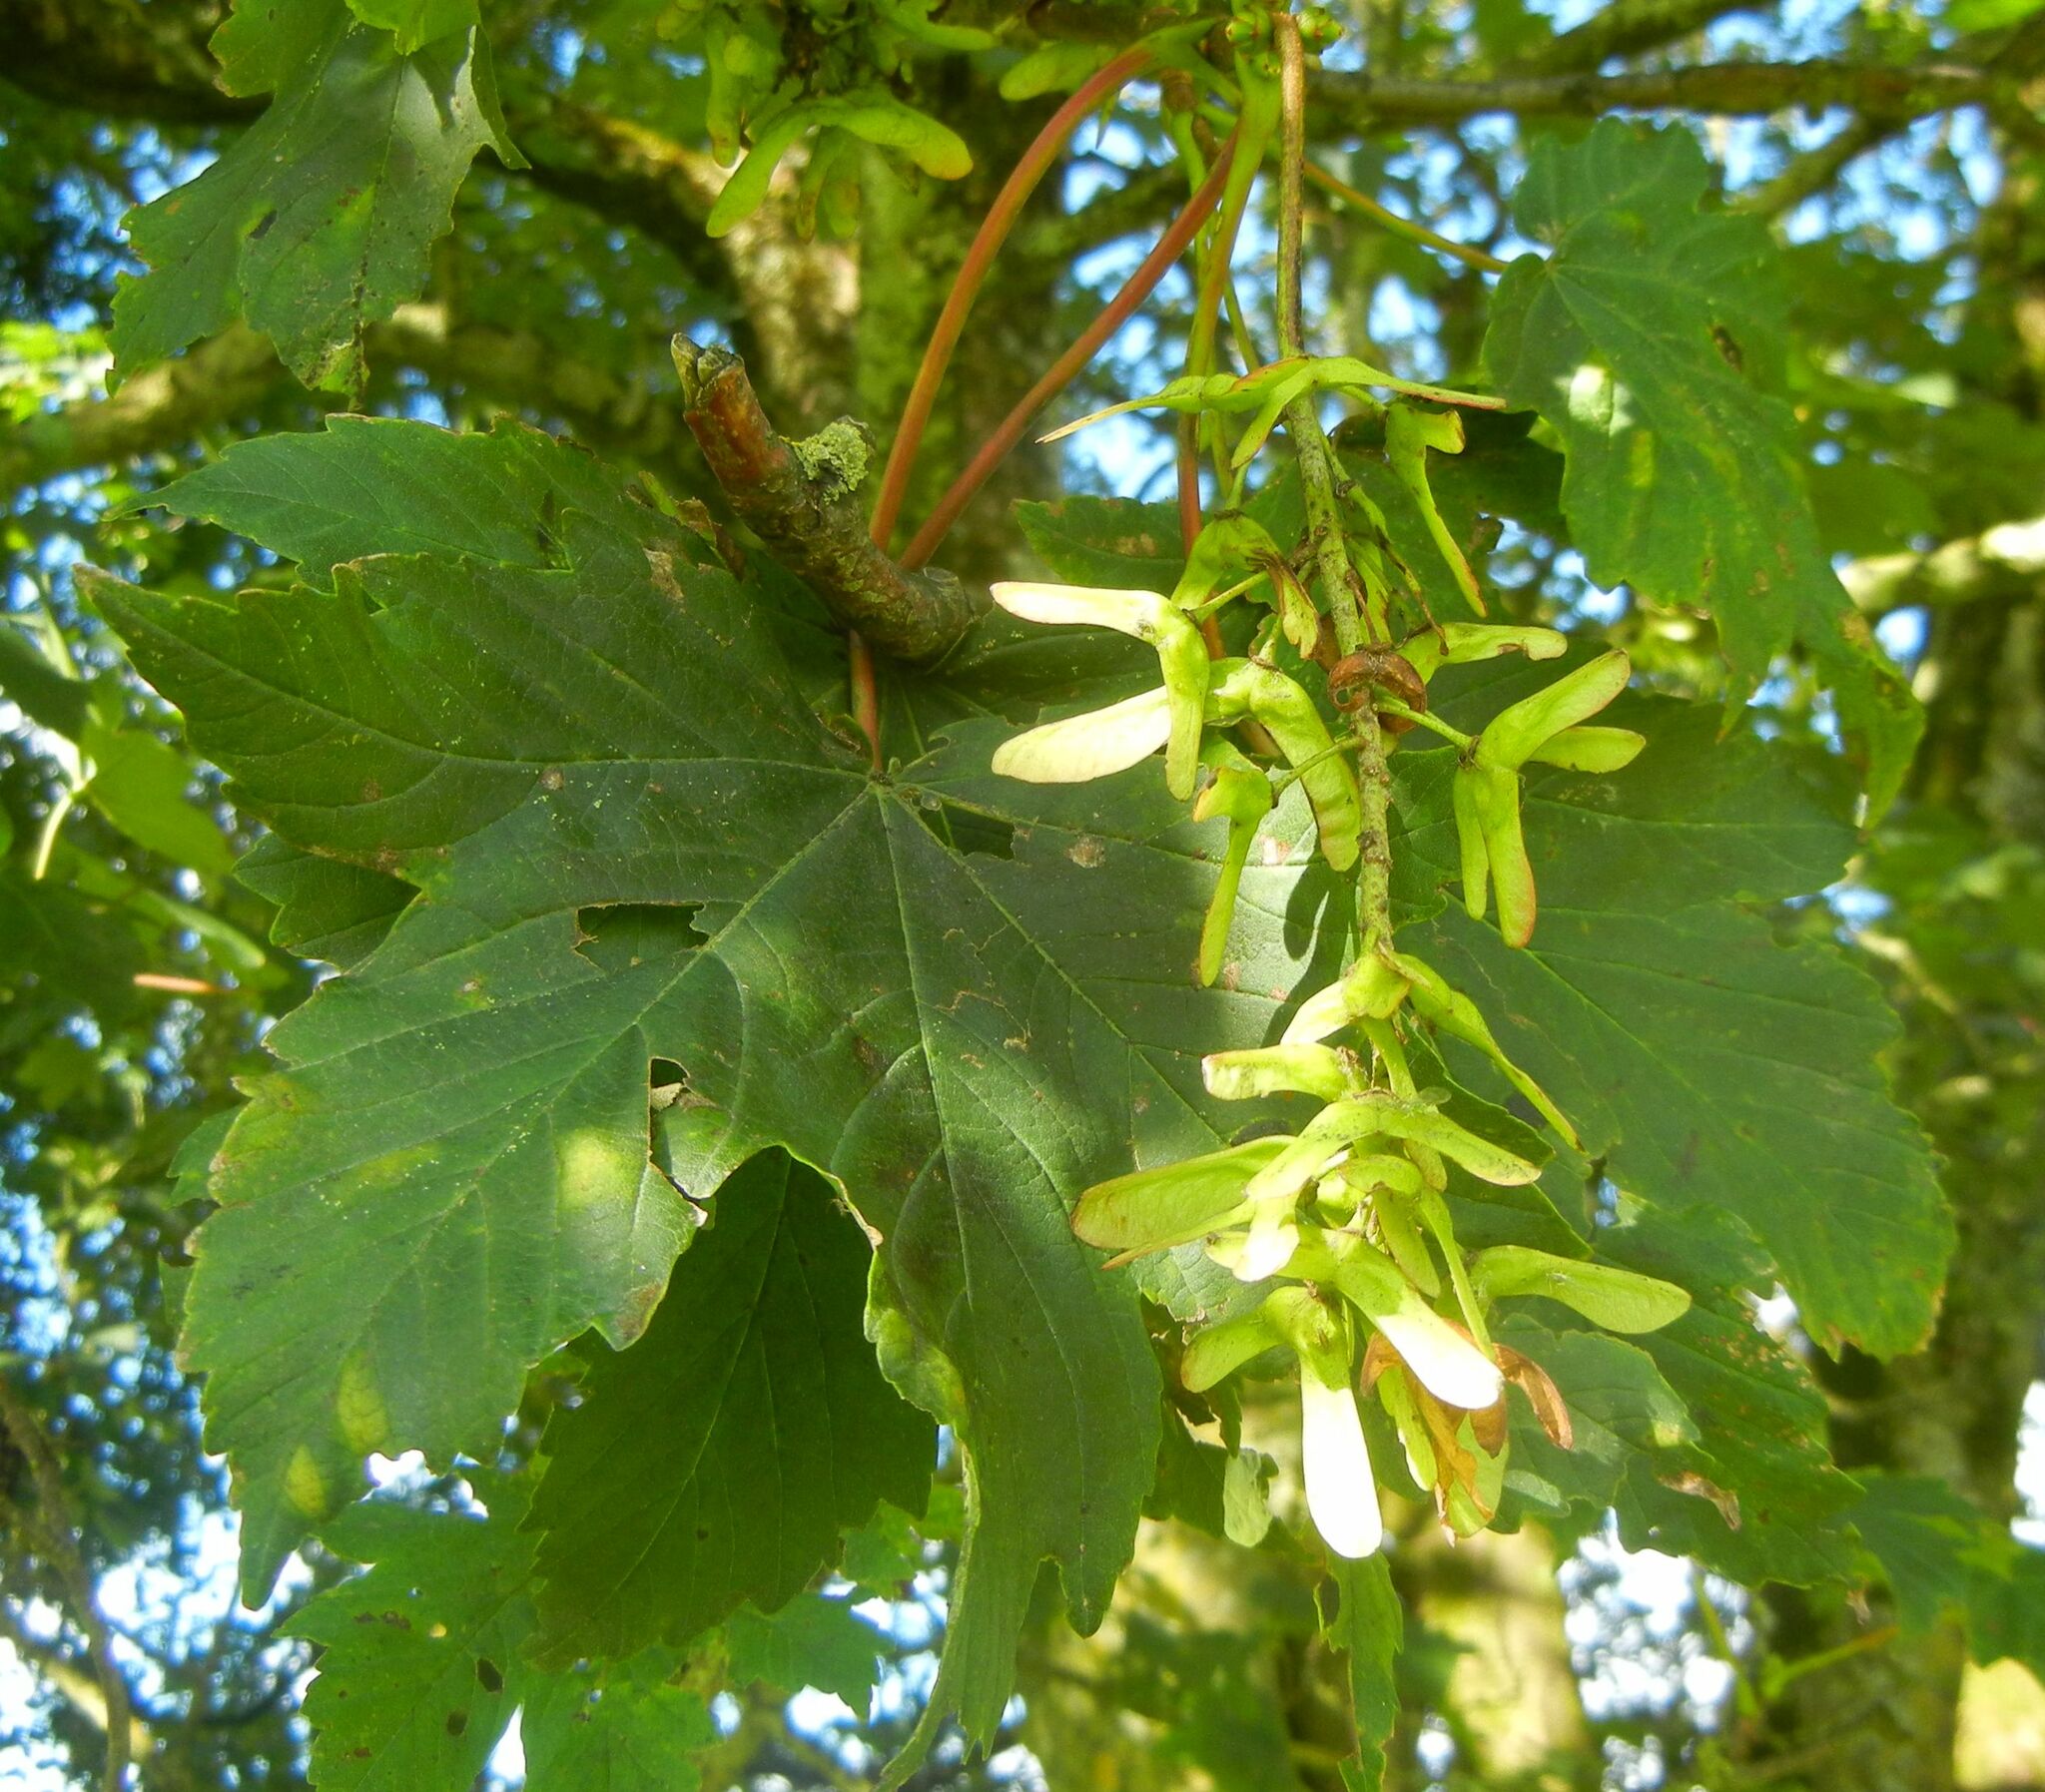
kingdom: Plantae
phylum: Tracheophyta
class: Magnoliopsida
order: Sapindales
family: Sapindaceae
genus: Acer
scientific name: Acer pseudoplatanus
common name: Sycamore
